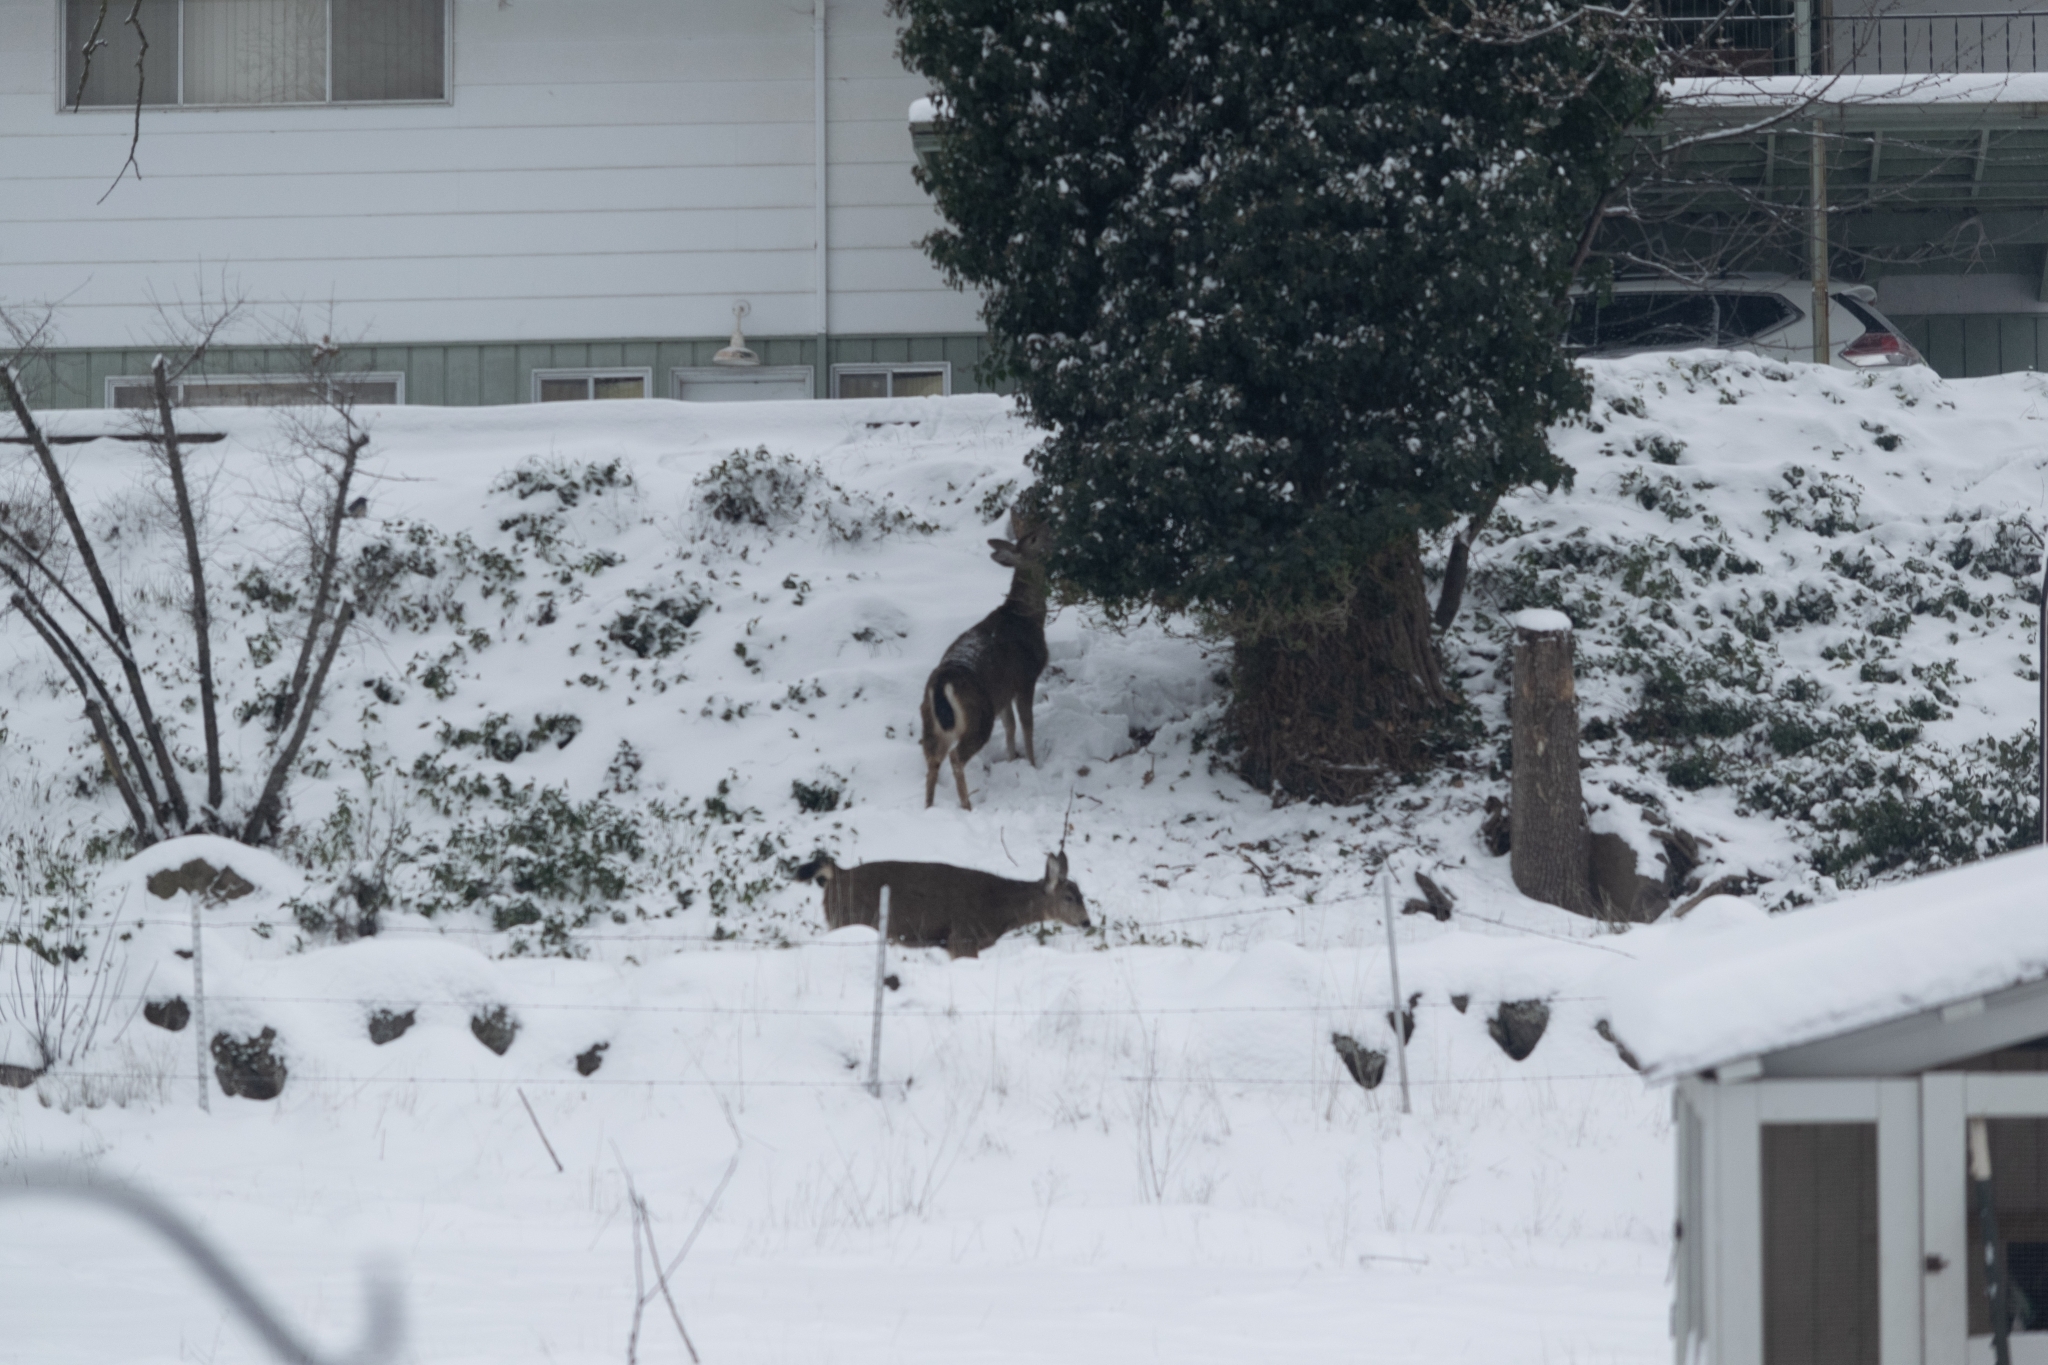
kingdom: Animalia
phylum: Chordata
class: Mammalia
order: Artiodactyla
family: Cervidae
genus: Odocoileus
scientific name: Odocoileus hemionus
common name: Mule deer
